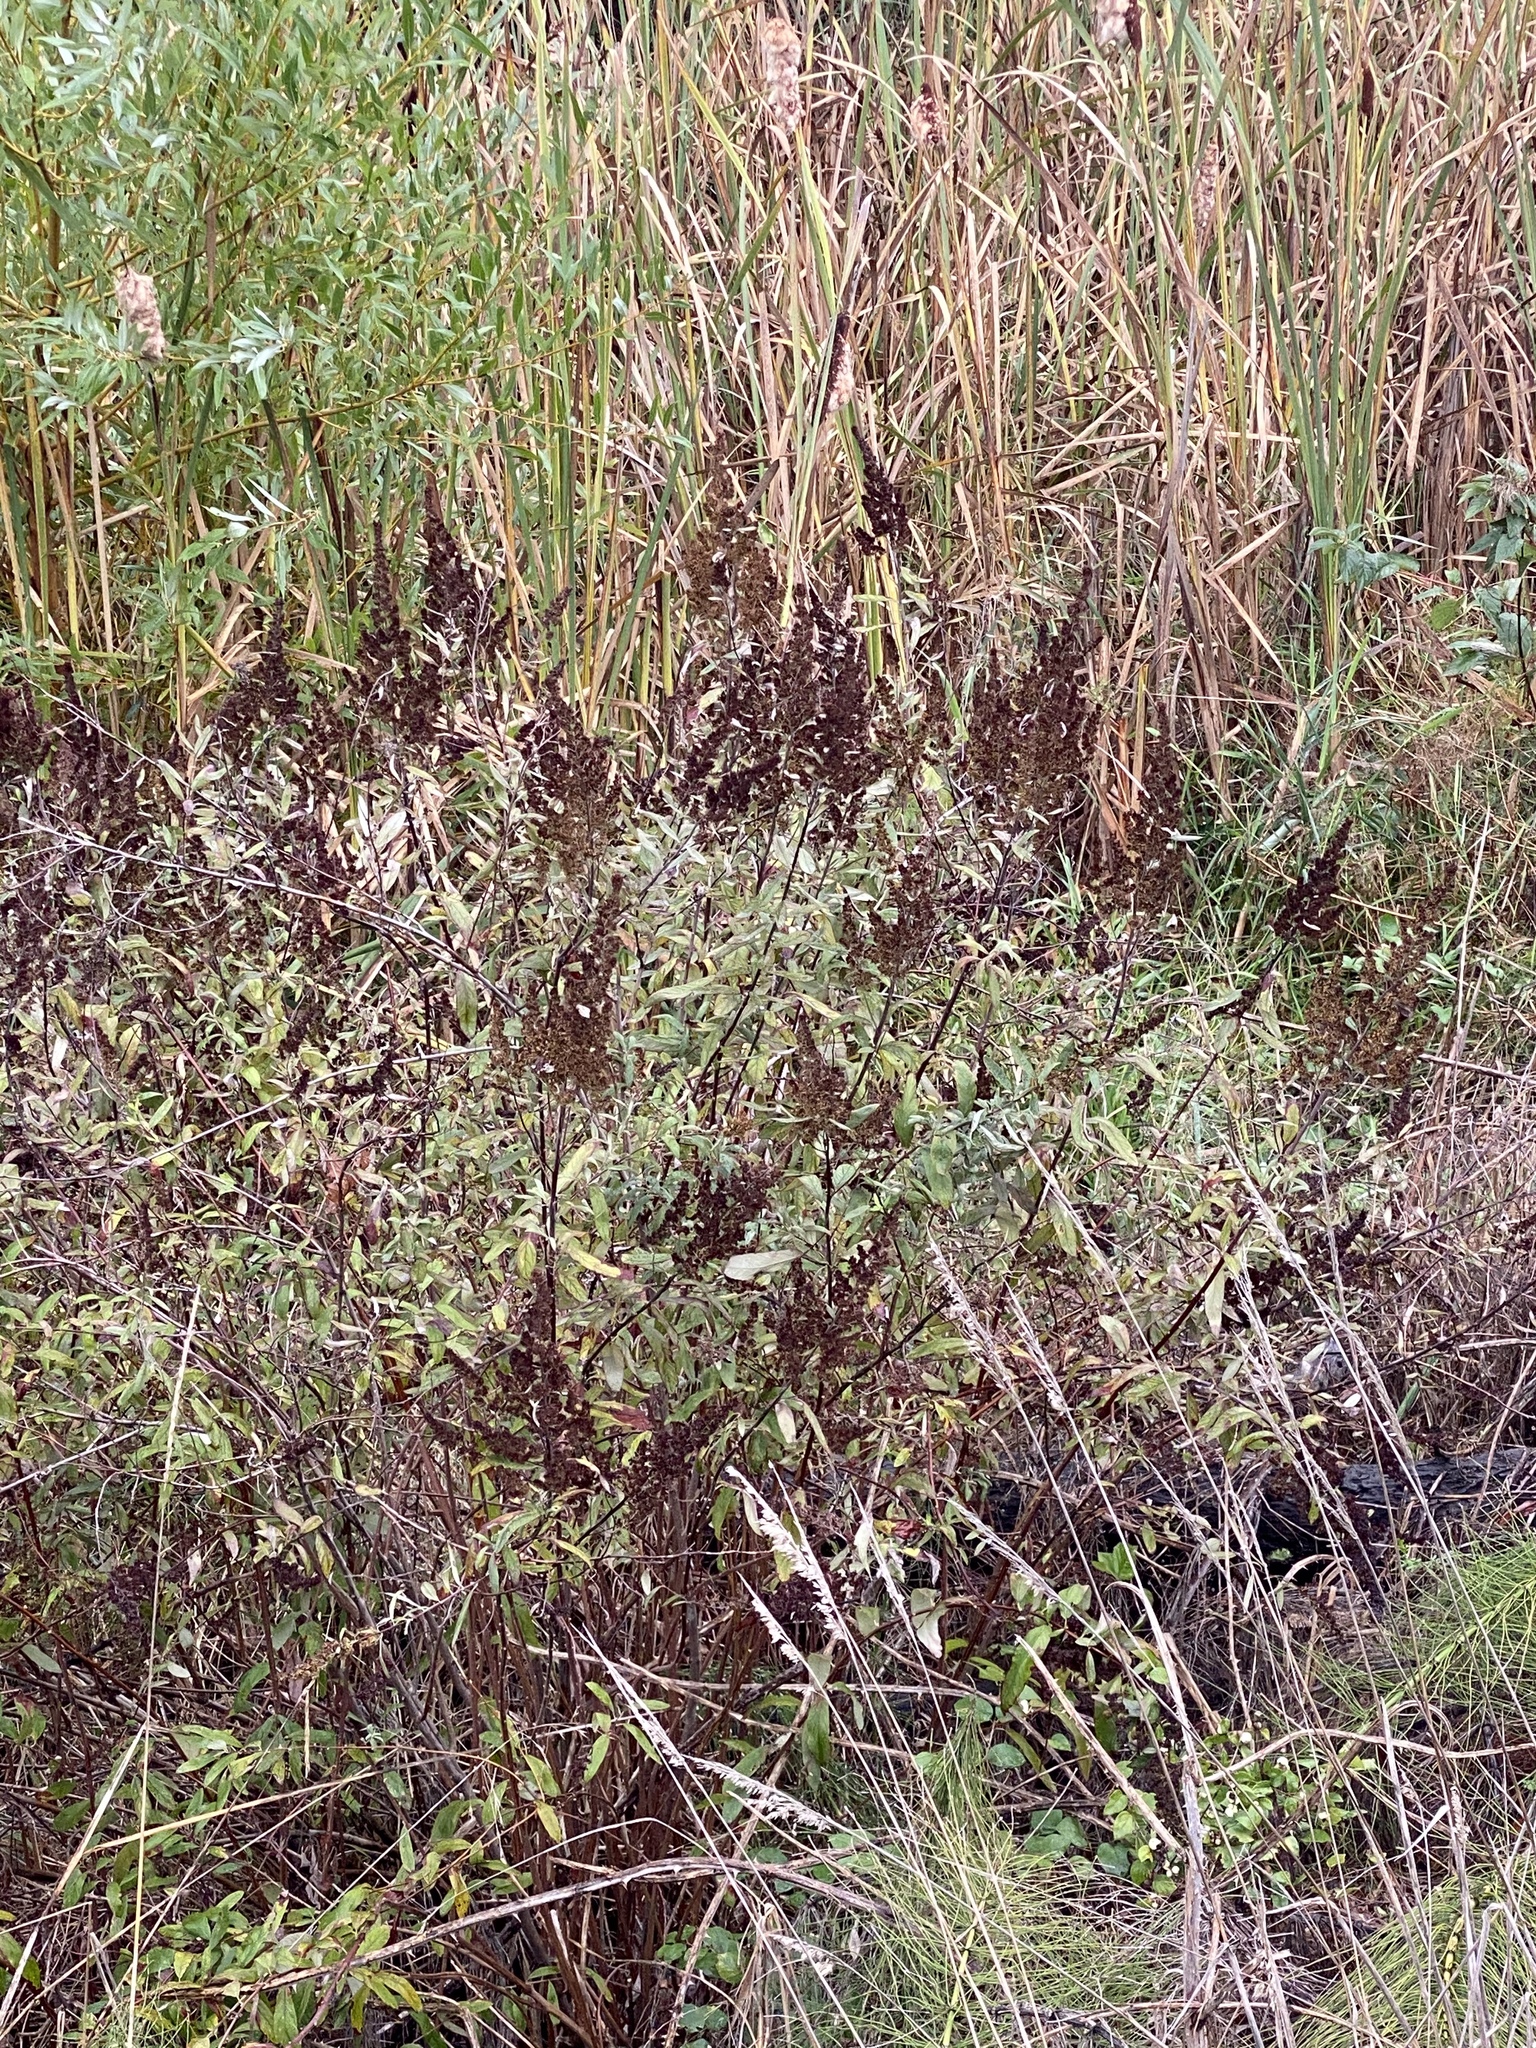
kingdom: Plantae
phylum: Tracheophyta
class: Magnoliopsida
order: Rosales
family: Rosaceae
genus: Spiraea
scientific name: Spiraea douglasii
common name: Steeplebush
